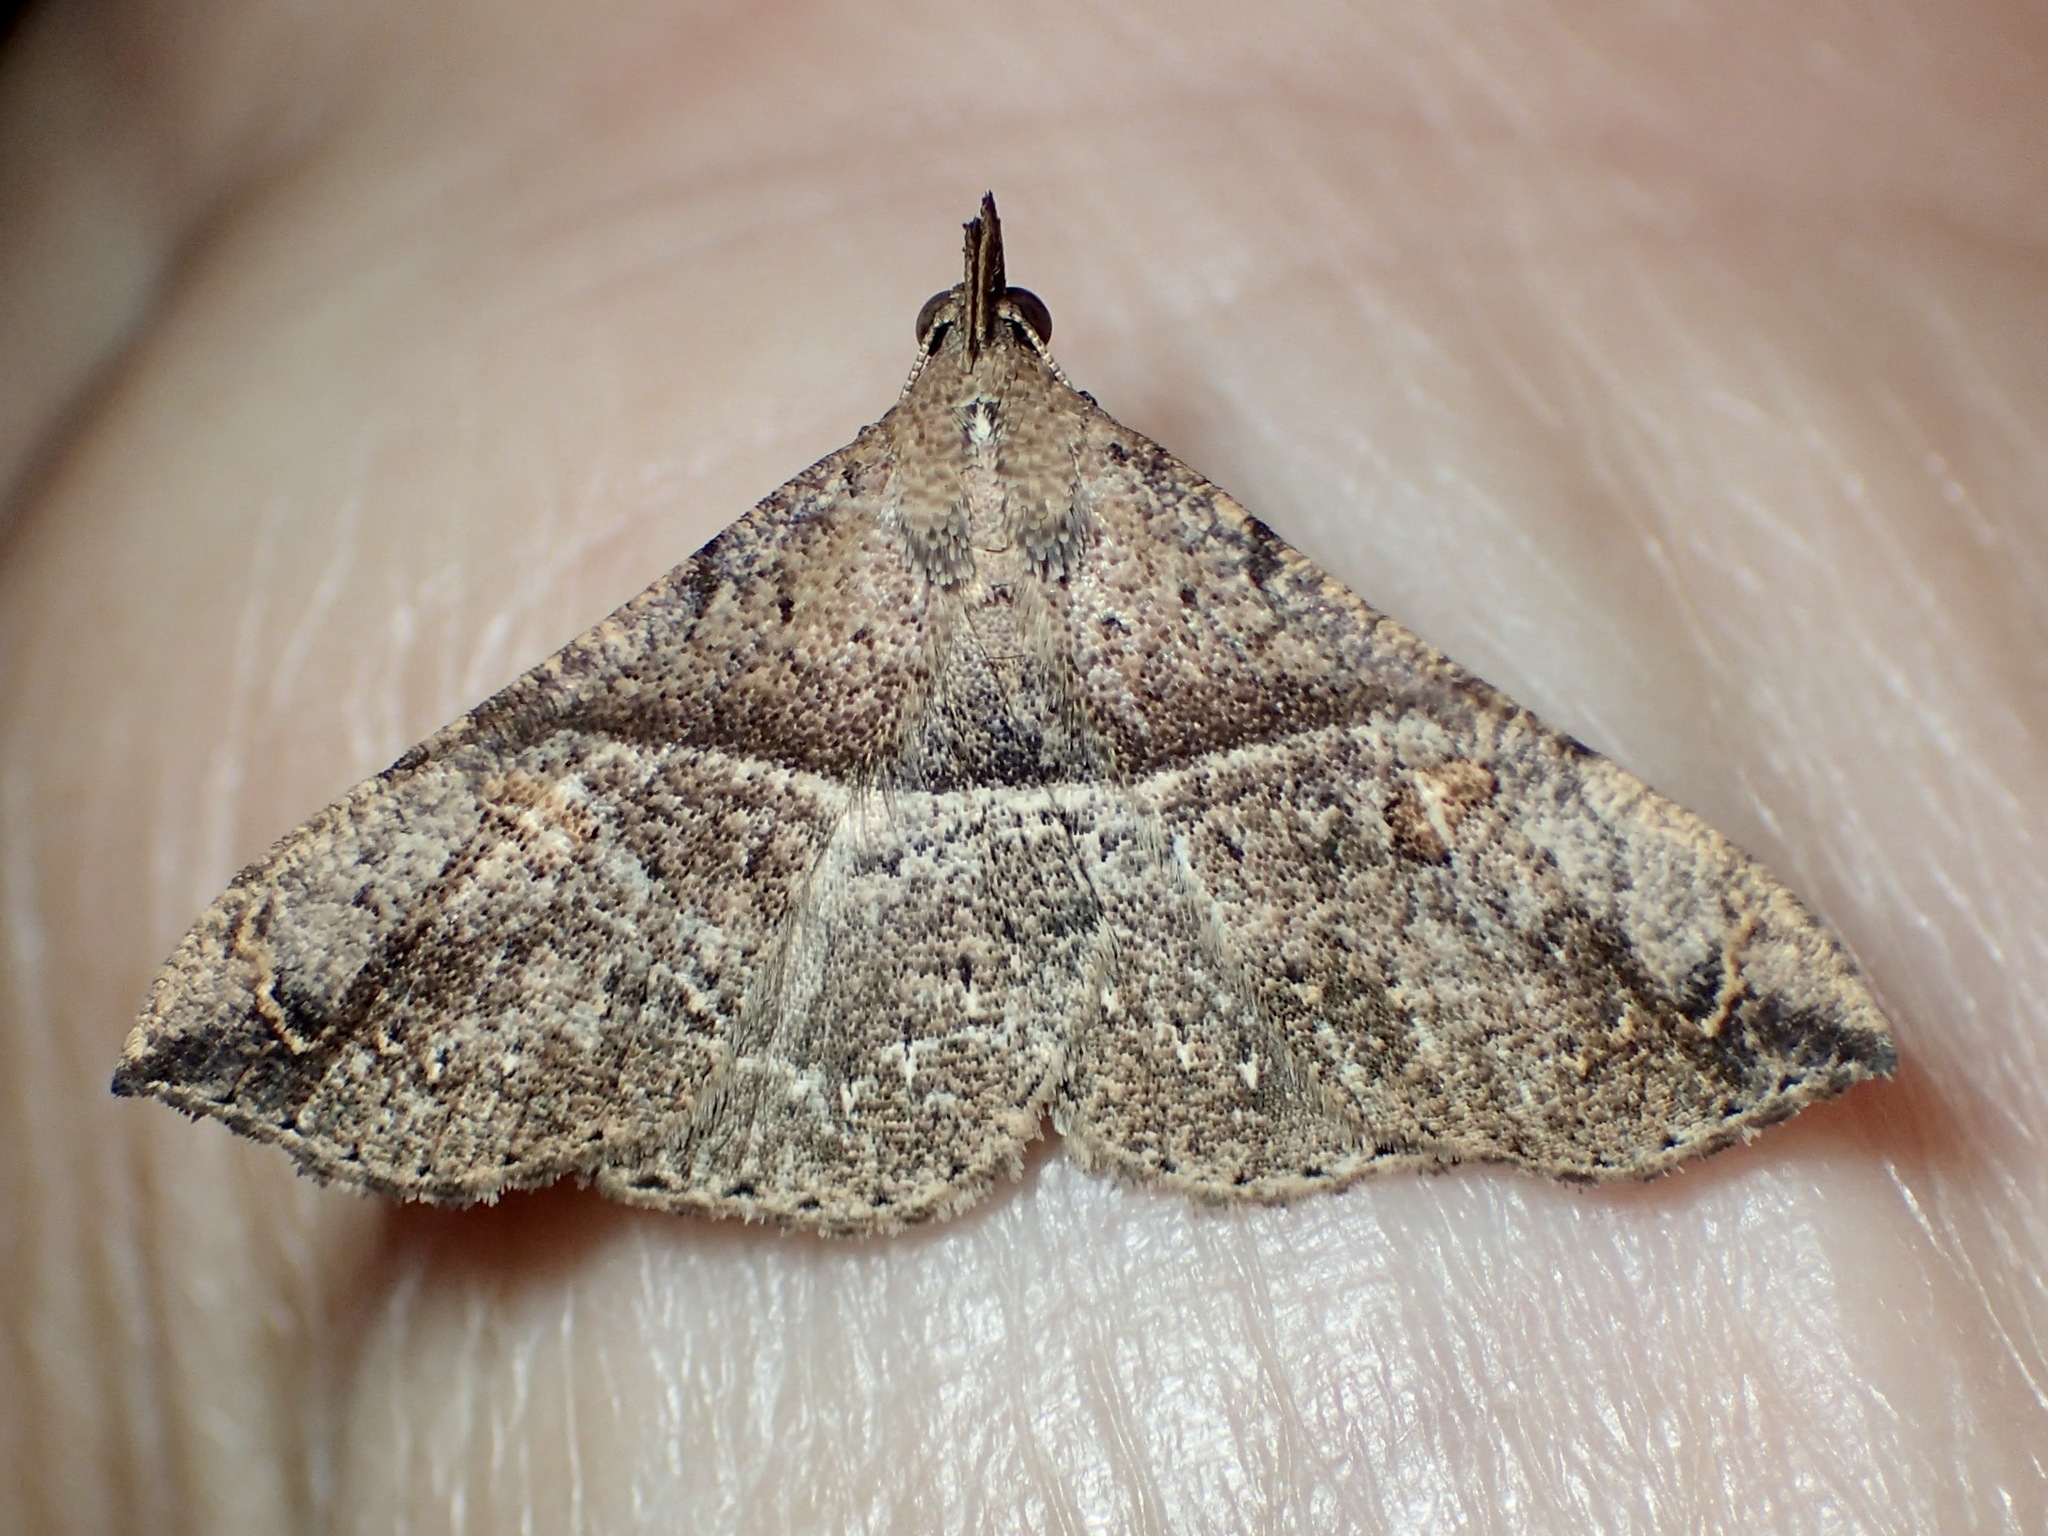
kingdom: Animalia
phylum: Arthropoda
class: Insecta
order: Lepidoptera
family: Erebidae
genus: Squamipalpis
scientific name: Squamipalpis pantoea
